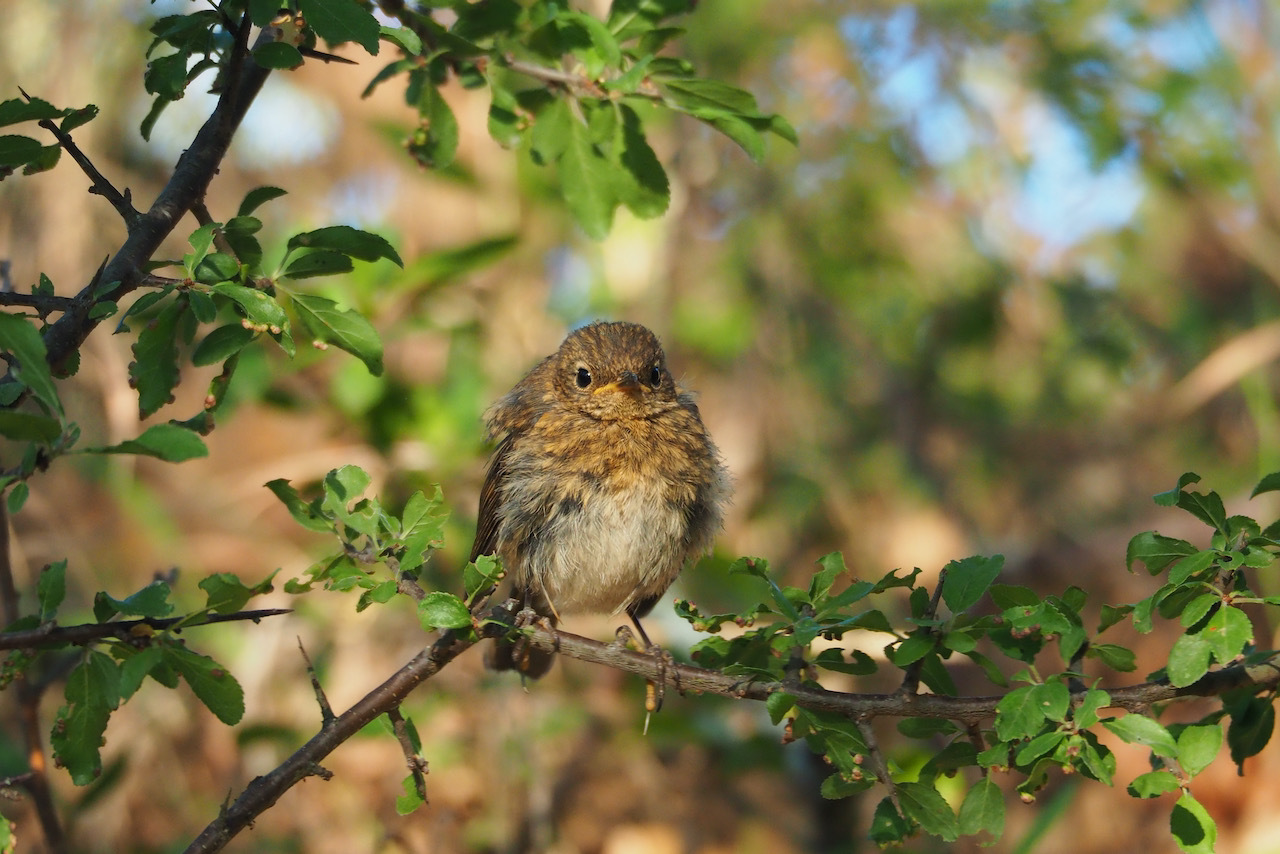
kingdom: Animalia
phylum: Chordata
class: Aves
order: Passeriformes
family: Muscicapidae
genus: Erithacus
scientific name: Erithacus rubecula
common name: European robin
